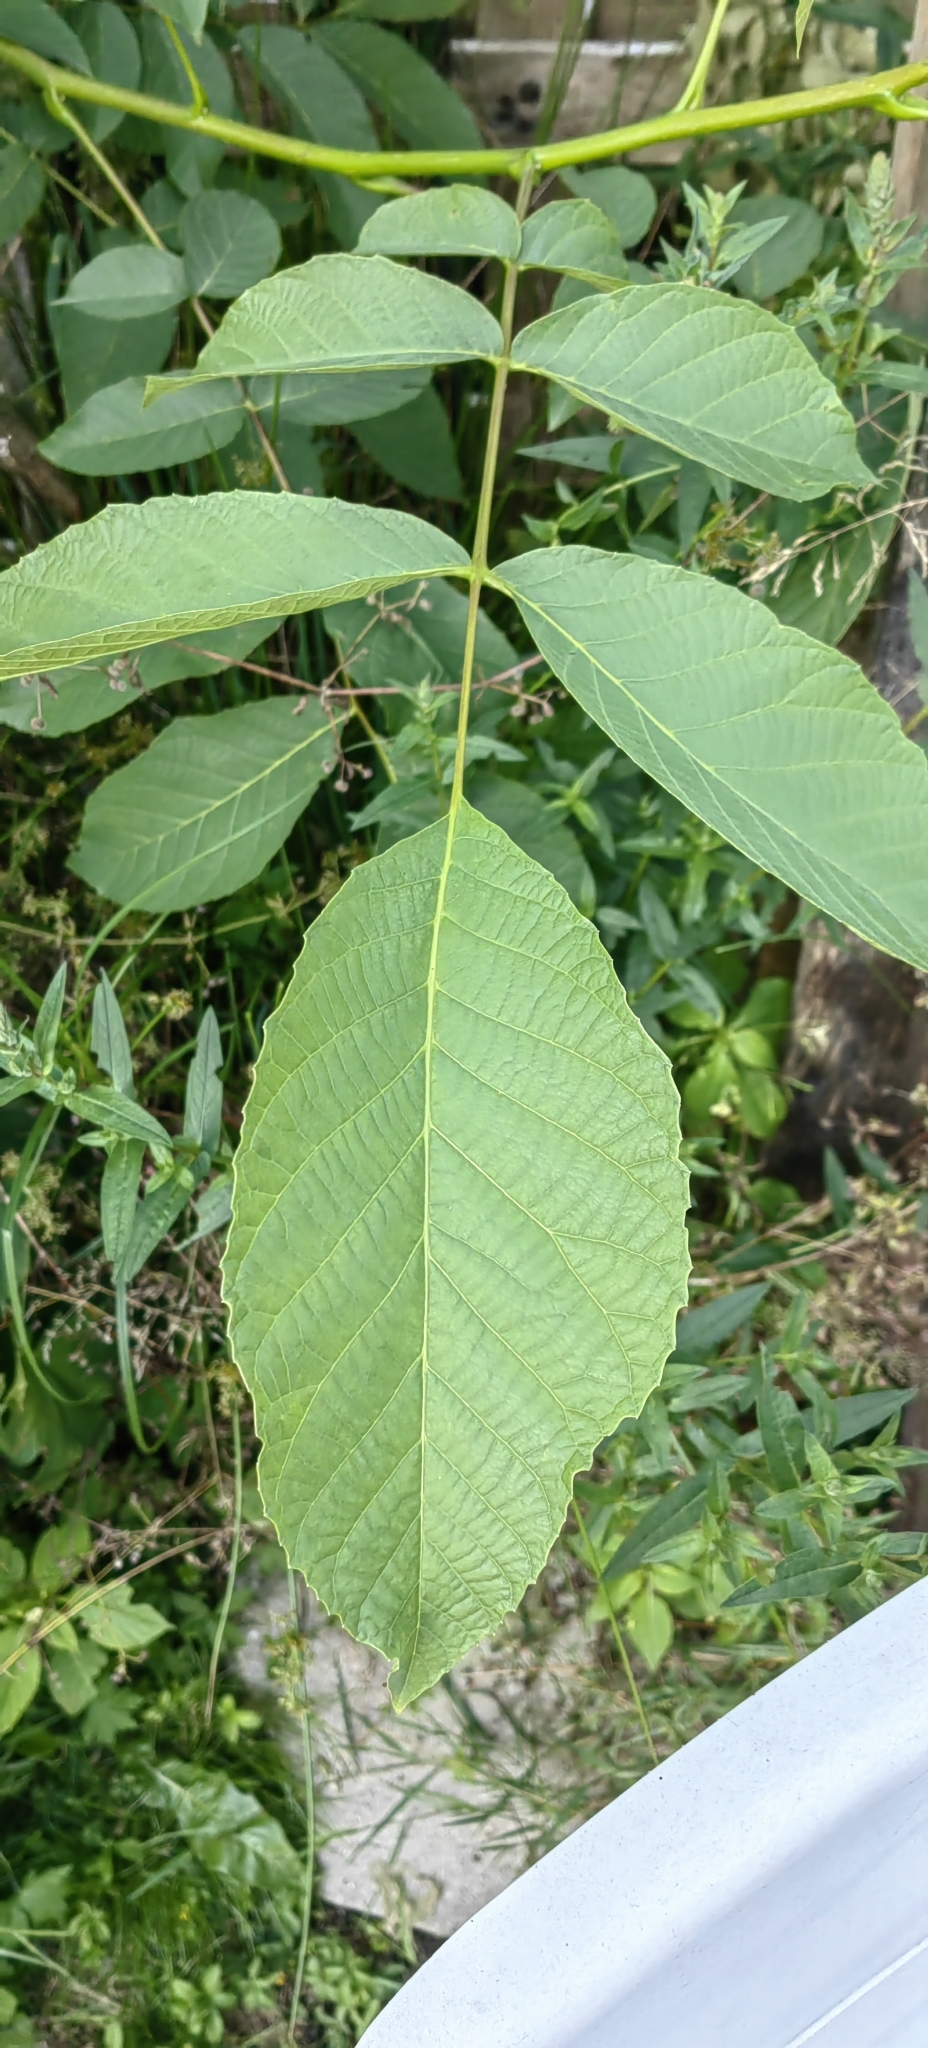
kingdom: Plantae
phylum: Tracheophyta
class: Magnoliopsida
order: Fagales
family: Juglandaceae
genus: Juglans
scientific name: Juglans regia
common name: Walnut
